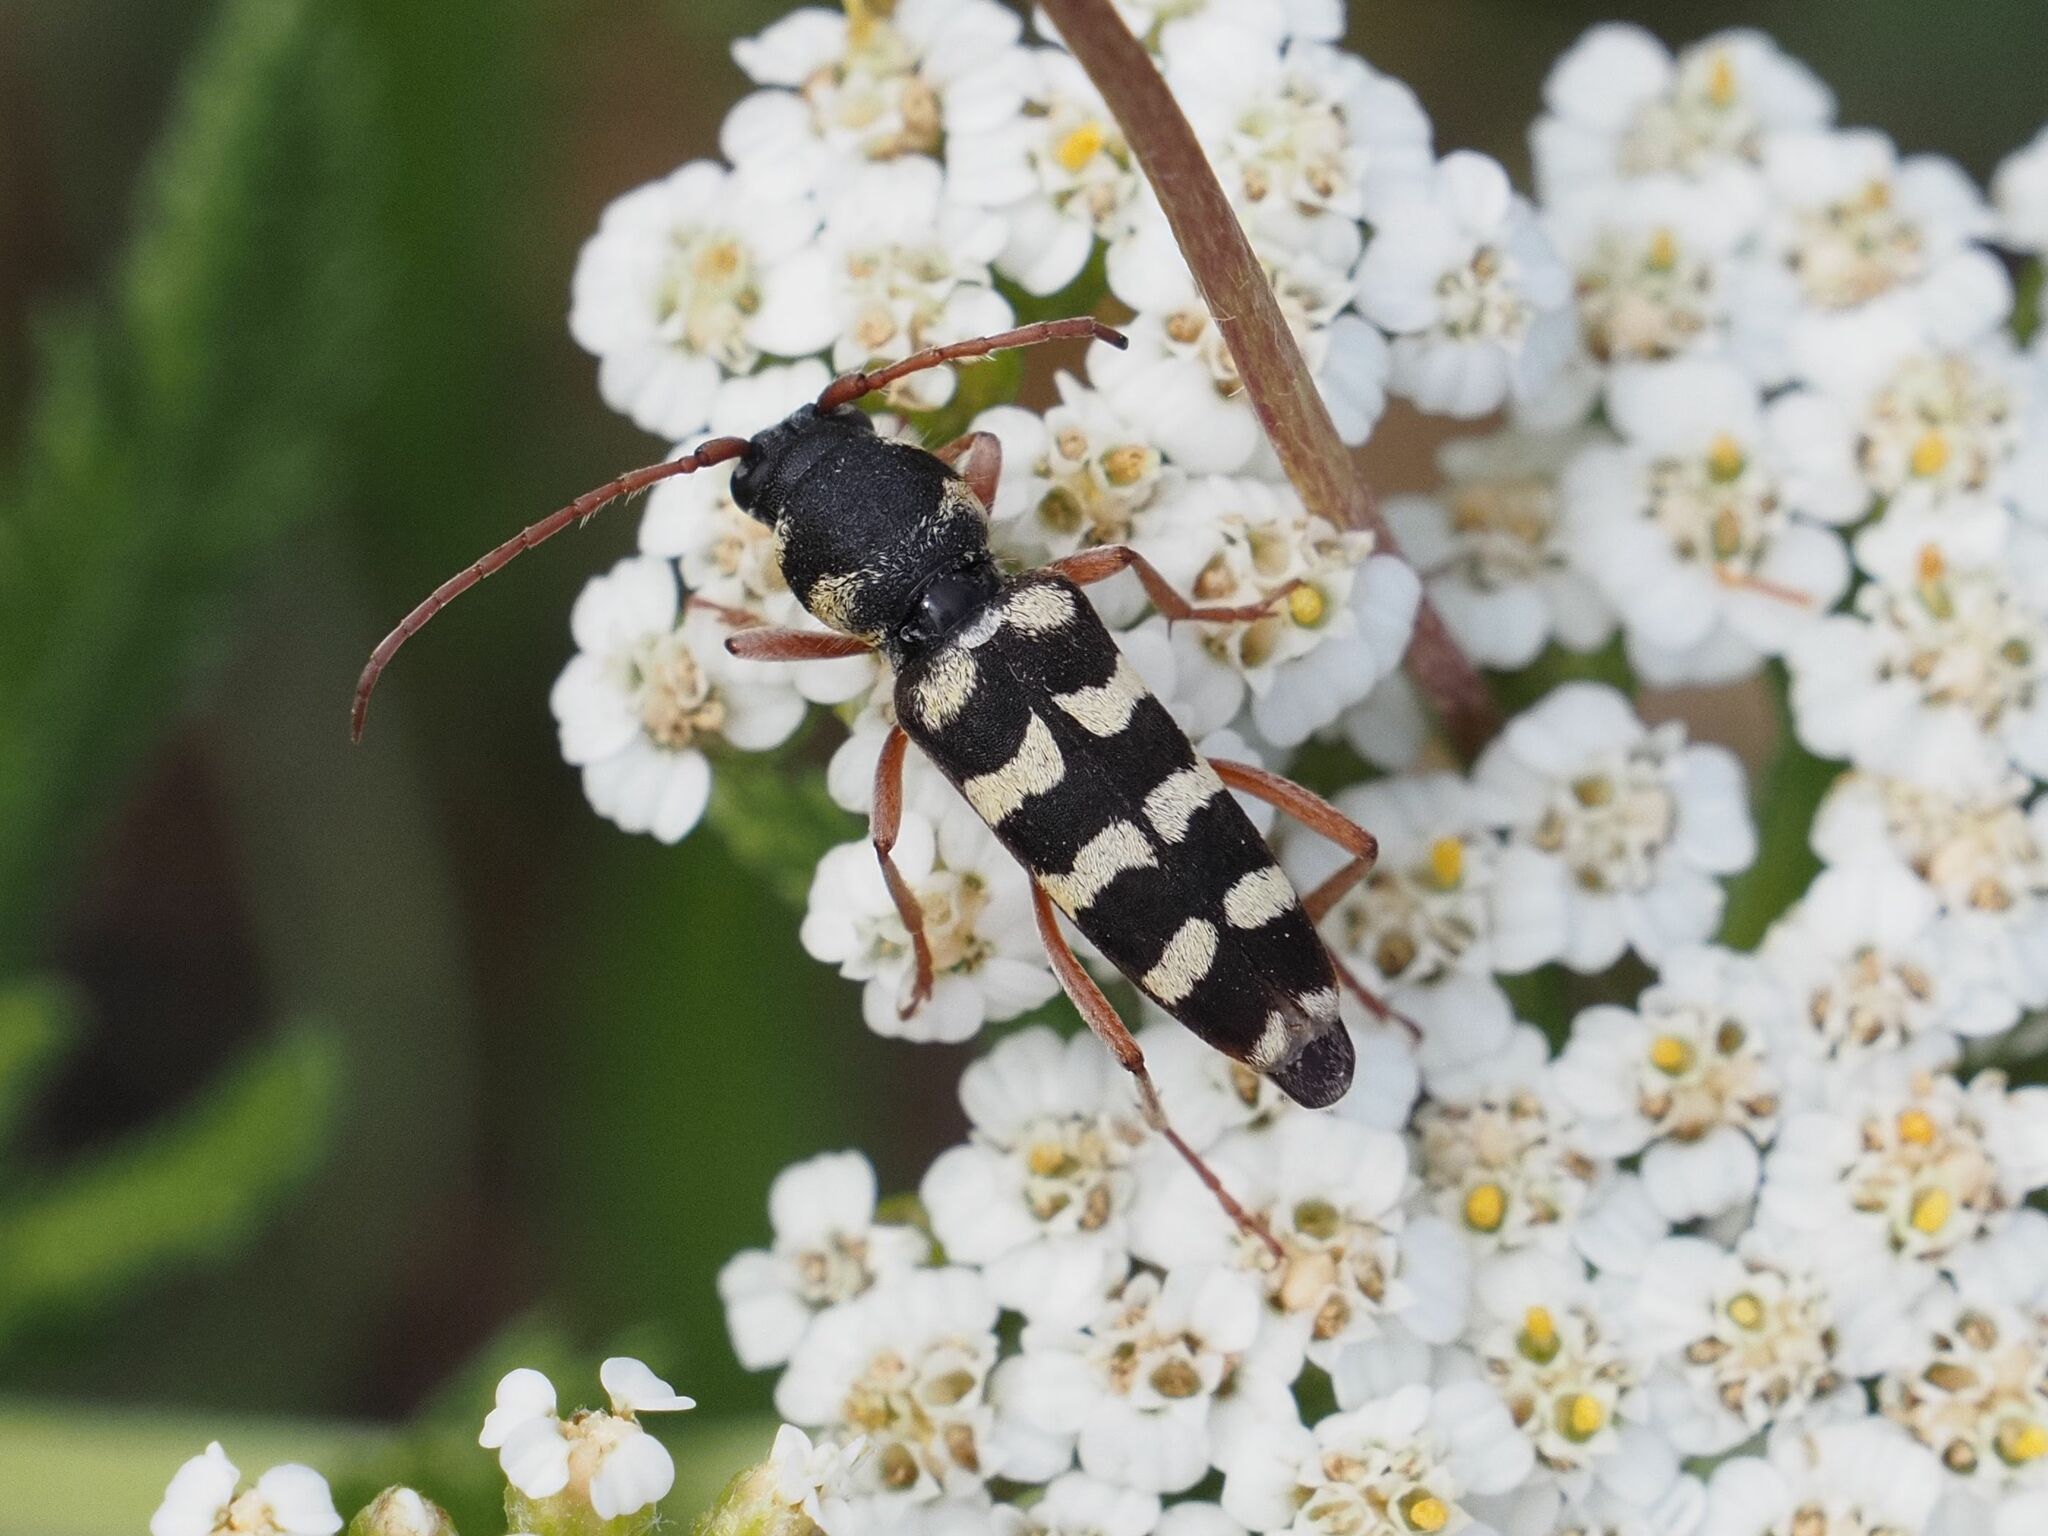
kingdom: Animalia
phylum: Arthropoda
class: Insecta
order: Coleoptera
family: Cerambycidae
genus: Plagionotus
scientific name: Plagionotus floralis
